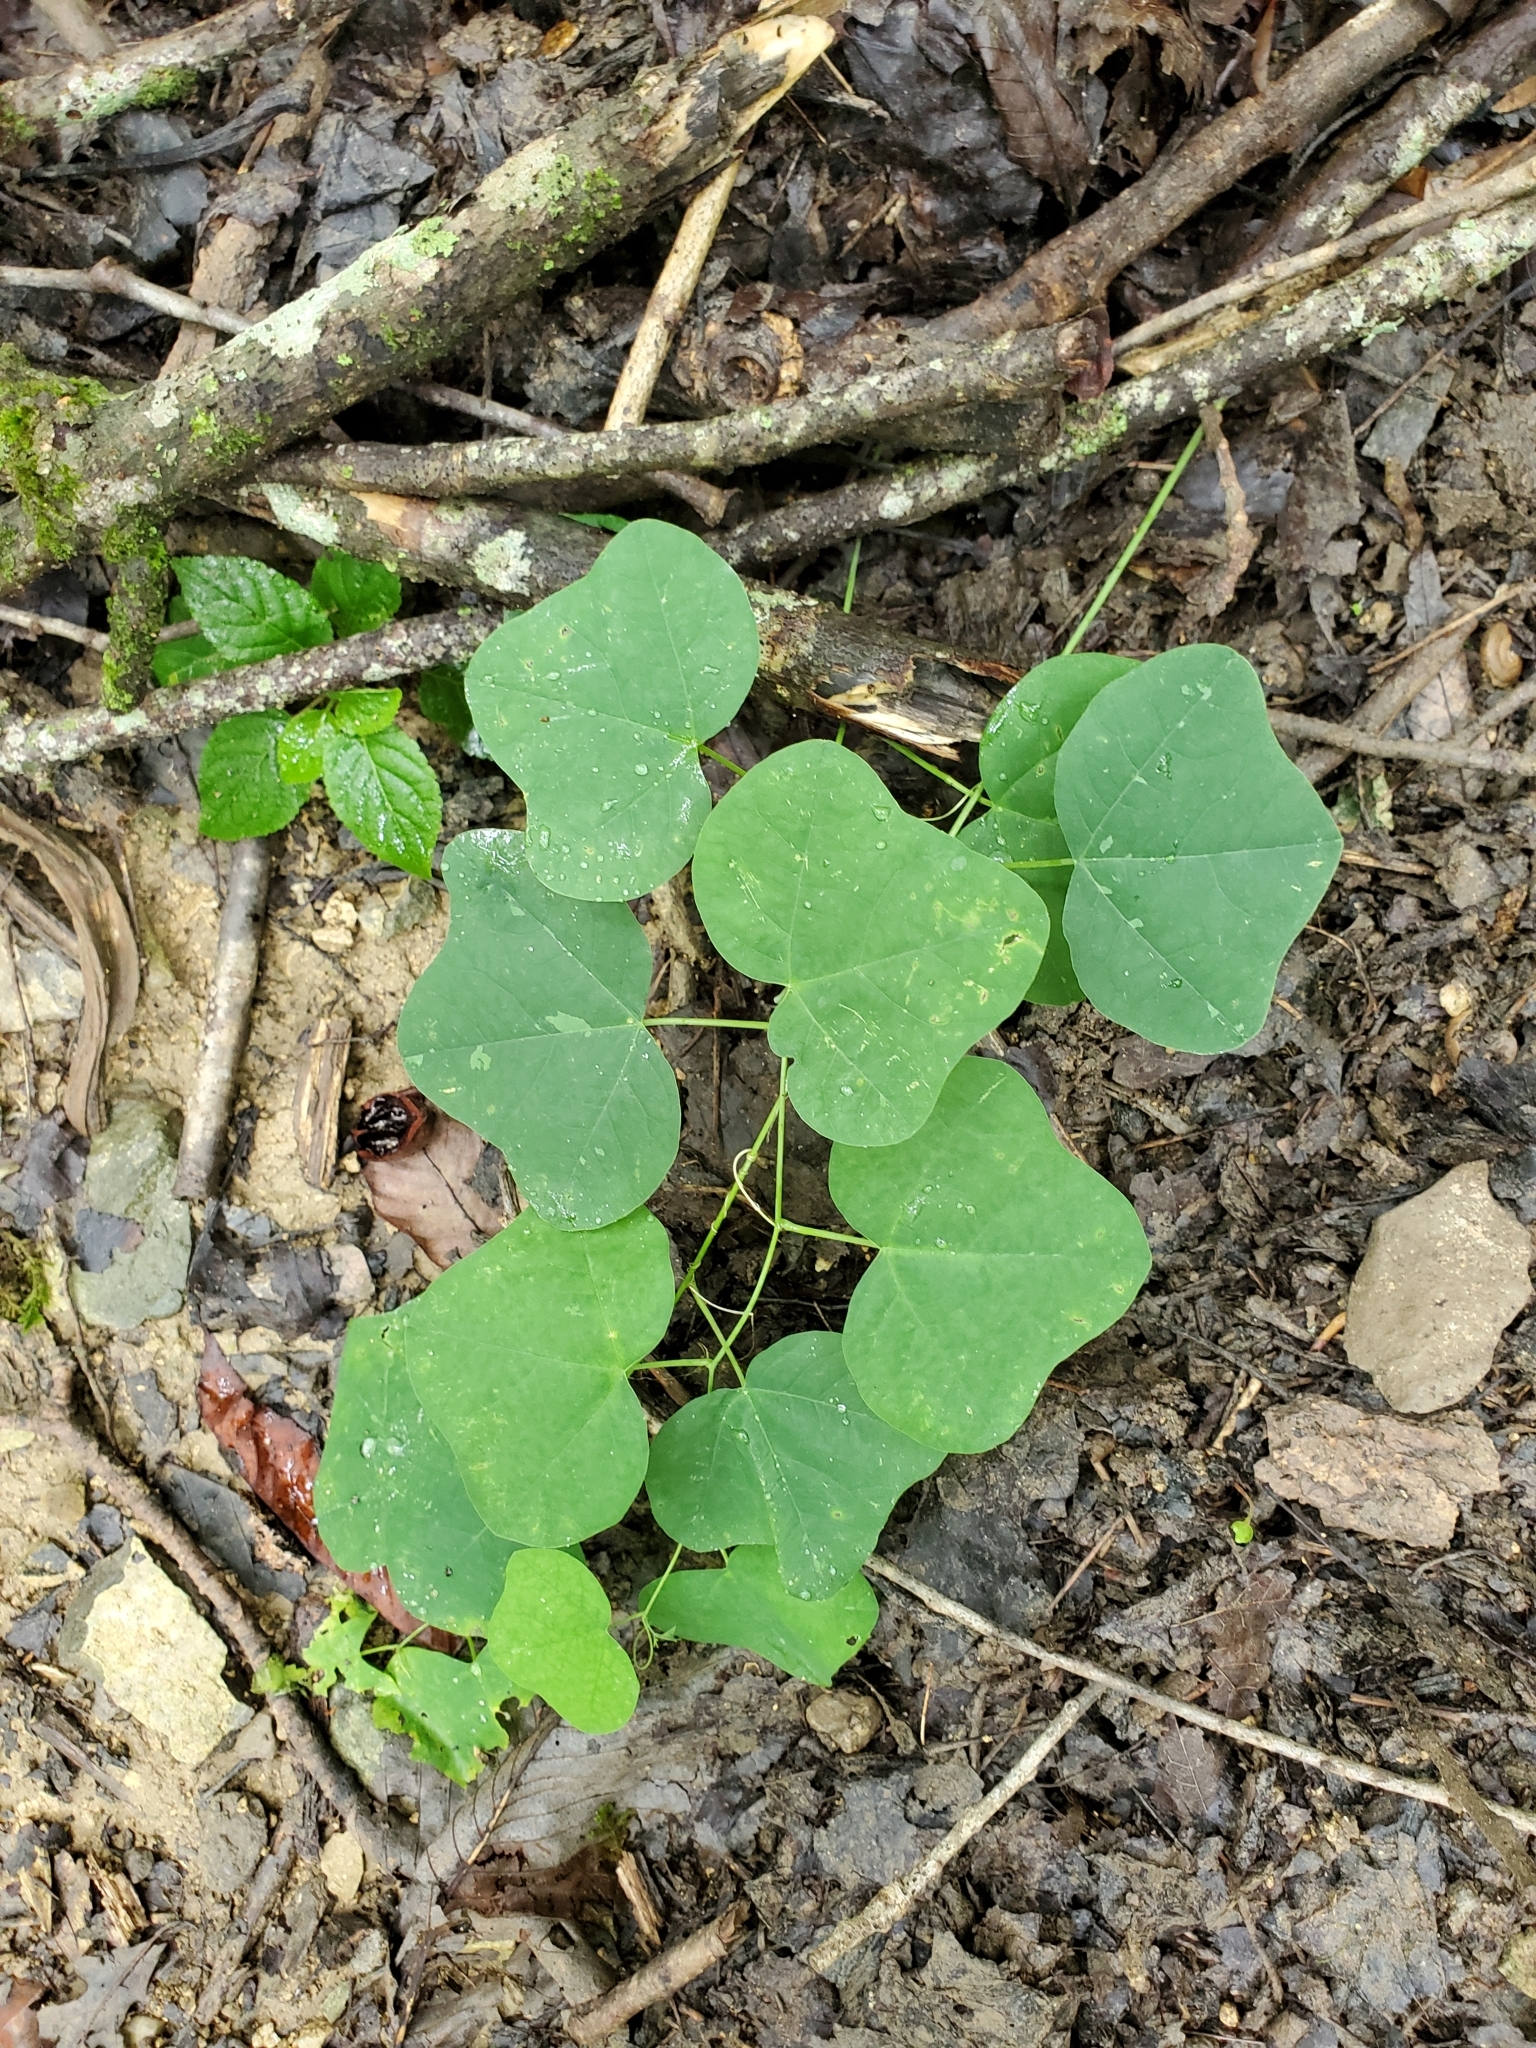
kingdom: Plantae
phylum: Tracheophyta
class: Magnoliopsida
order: Malpighiales
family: Passifloraceae
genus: Passiflora
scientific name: Passiflora lutea
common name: Yellow passionflower
